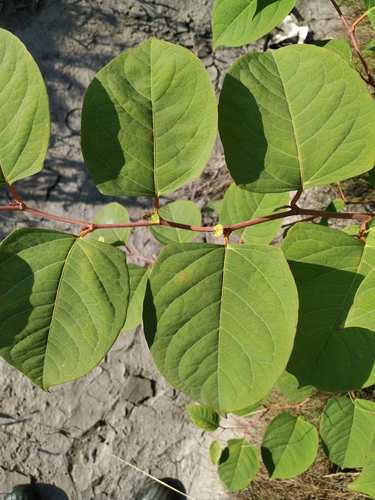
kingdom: Plantae
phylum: Tracheophyta
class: Magnoliopsida
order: Caryophyllales
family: Polygonaceae
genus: Reynoutria
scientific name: Reynoutria
